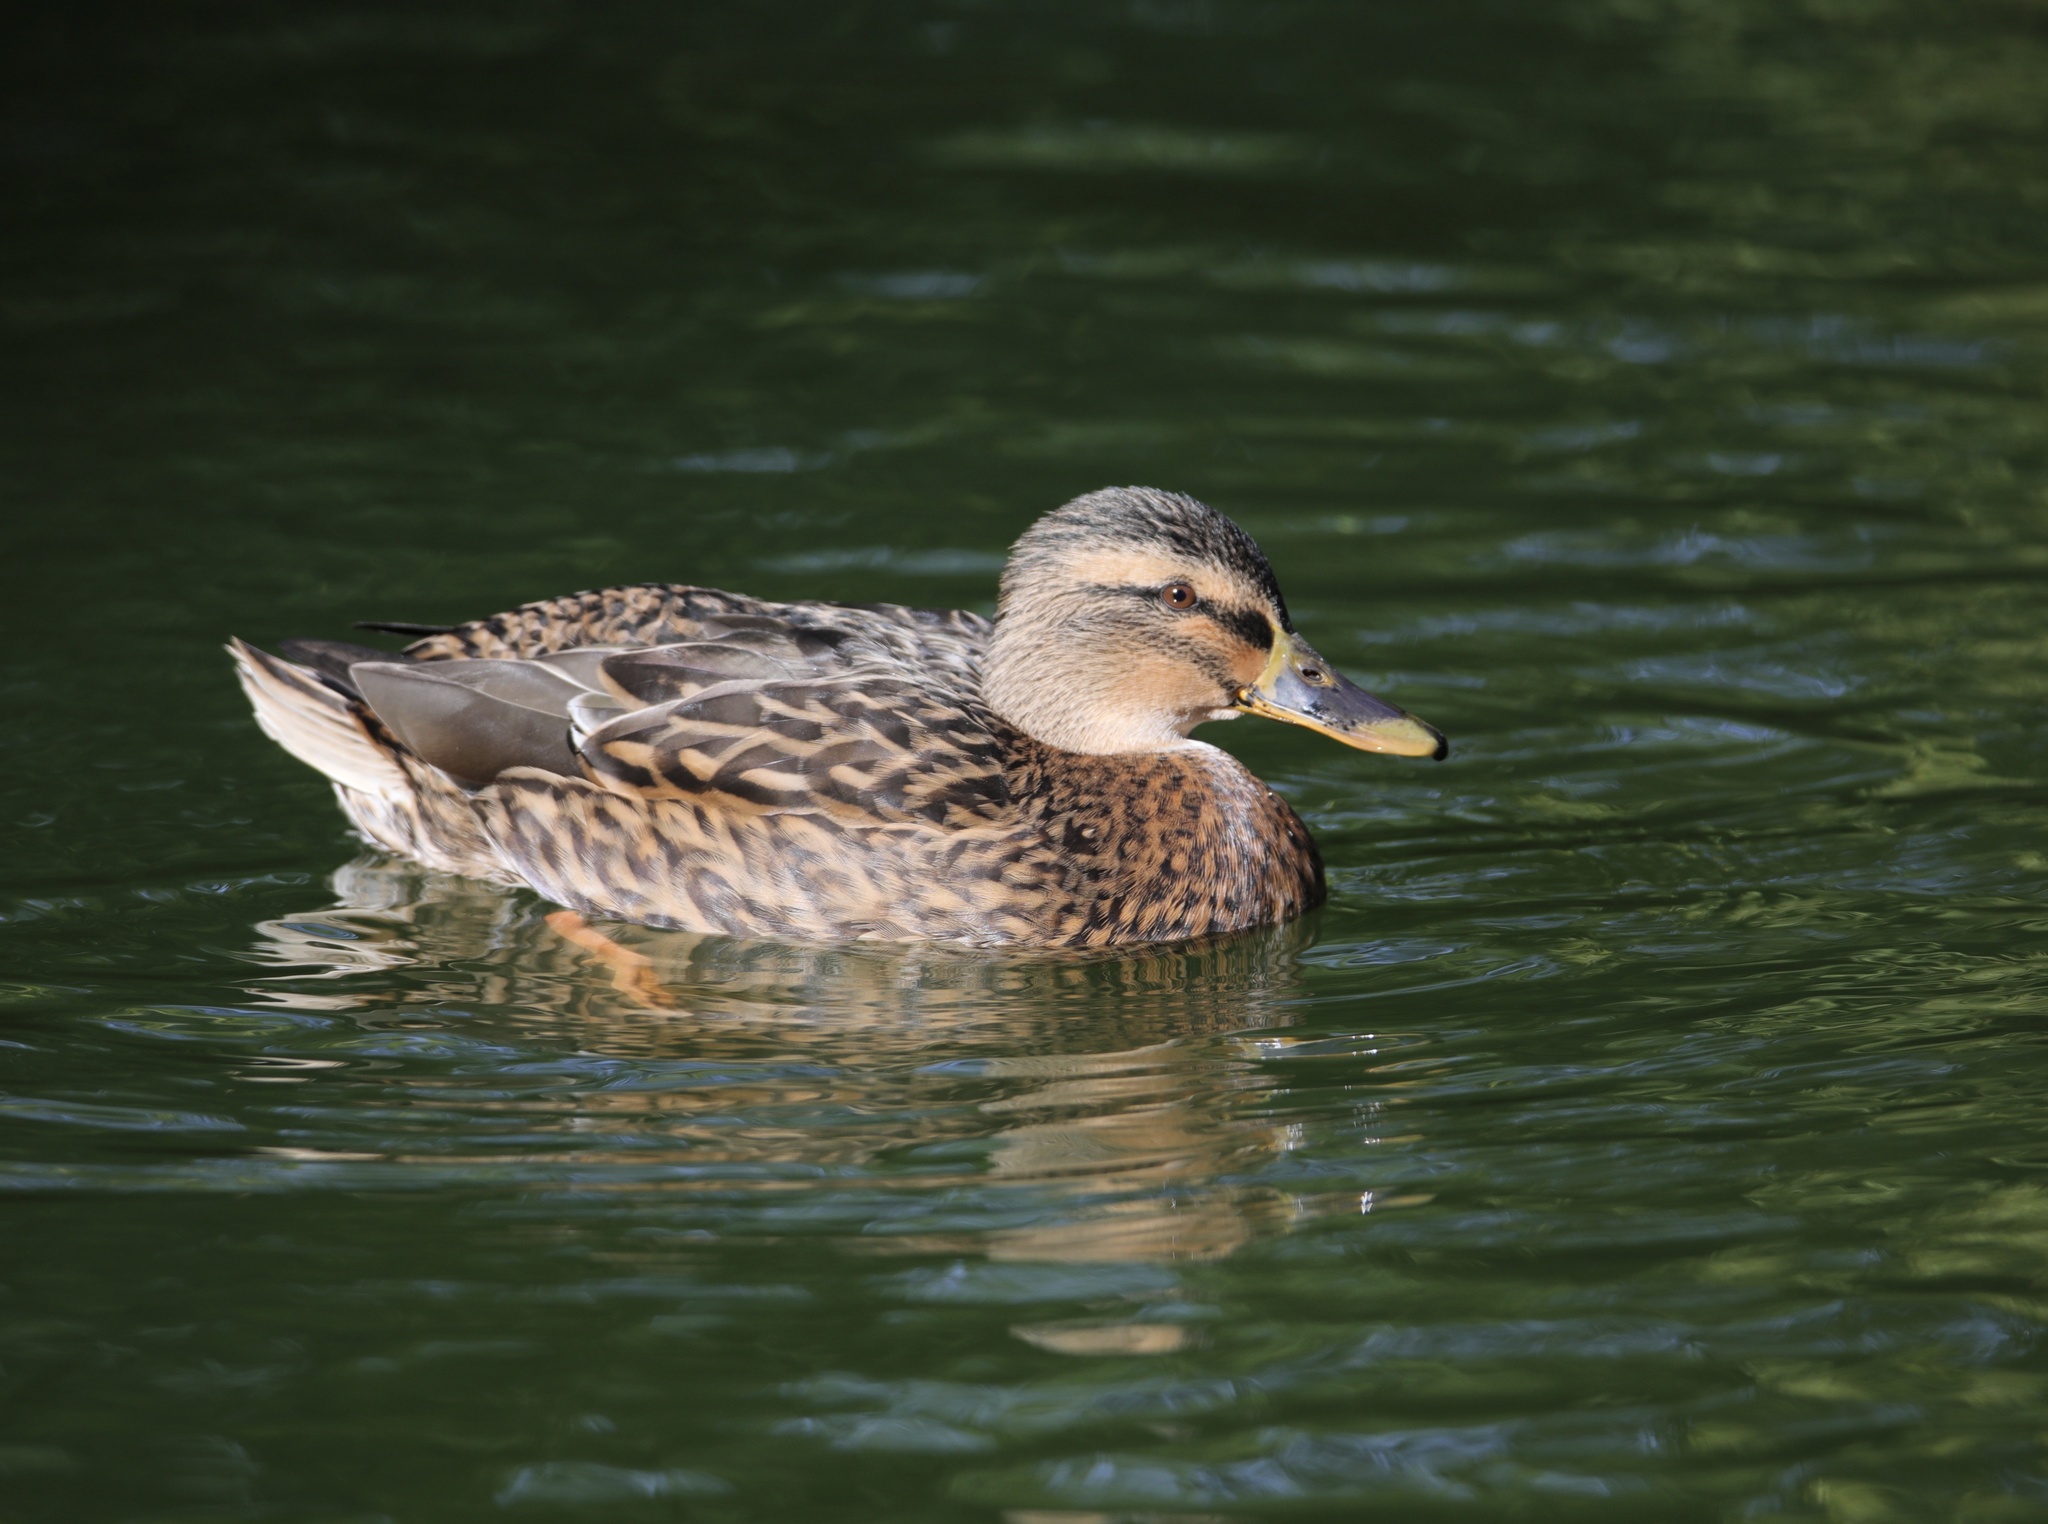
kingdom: Animalia
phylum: Chordata
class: Aves
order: Anseriformes
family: Anatidae
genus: Anas
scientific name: Anas platyrhynchos
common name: Mallard
